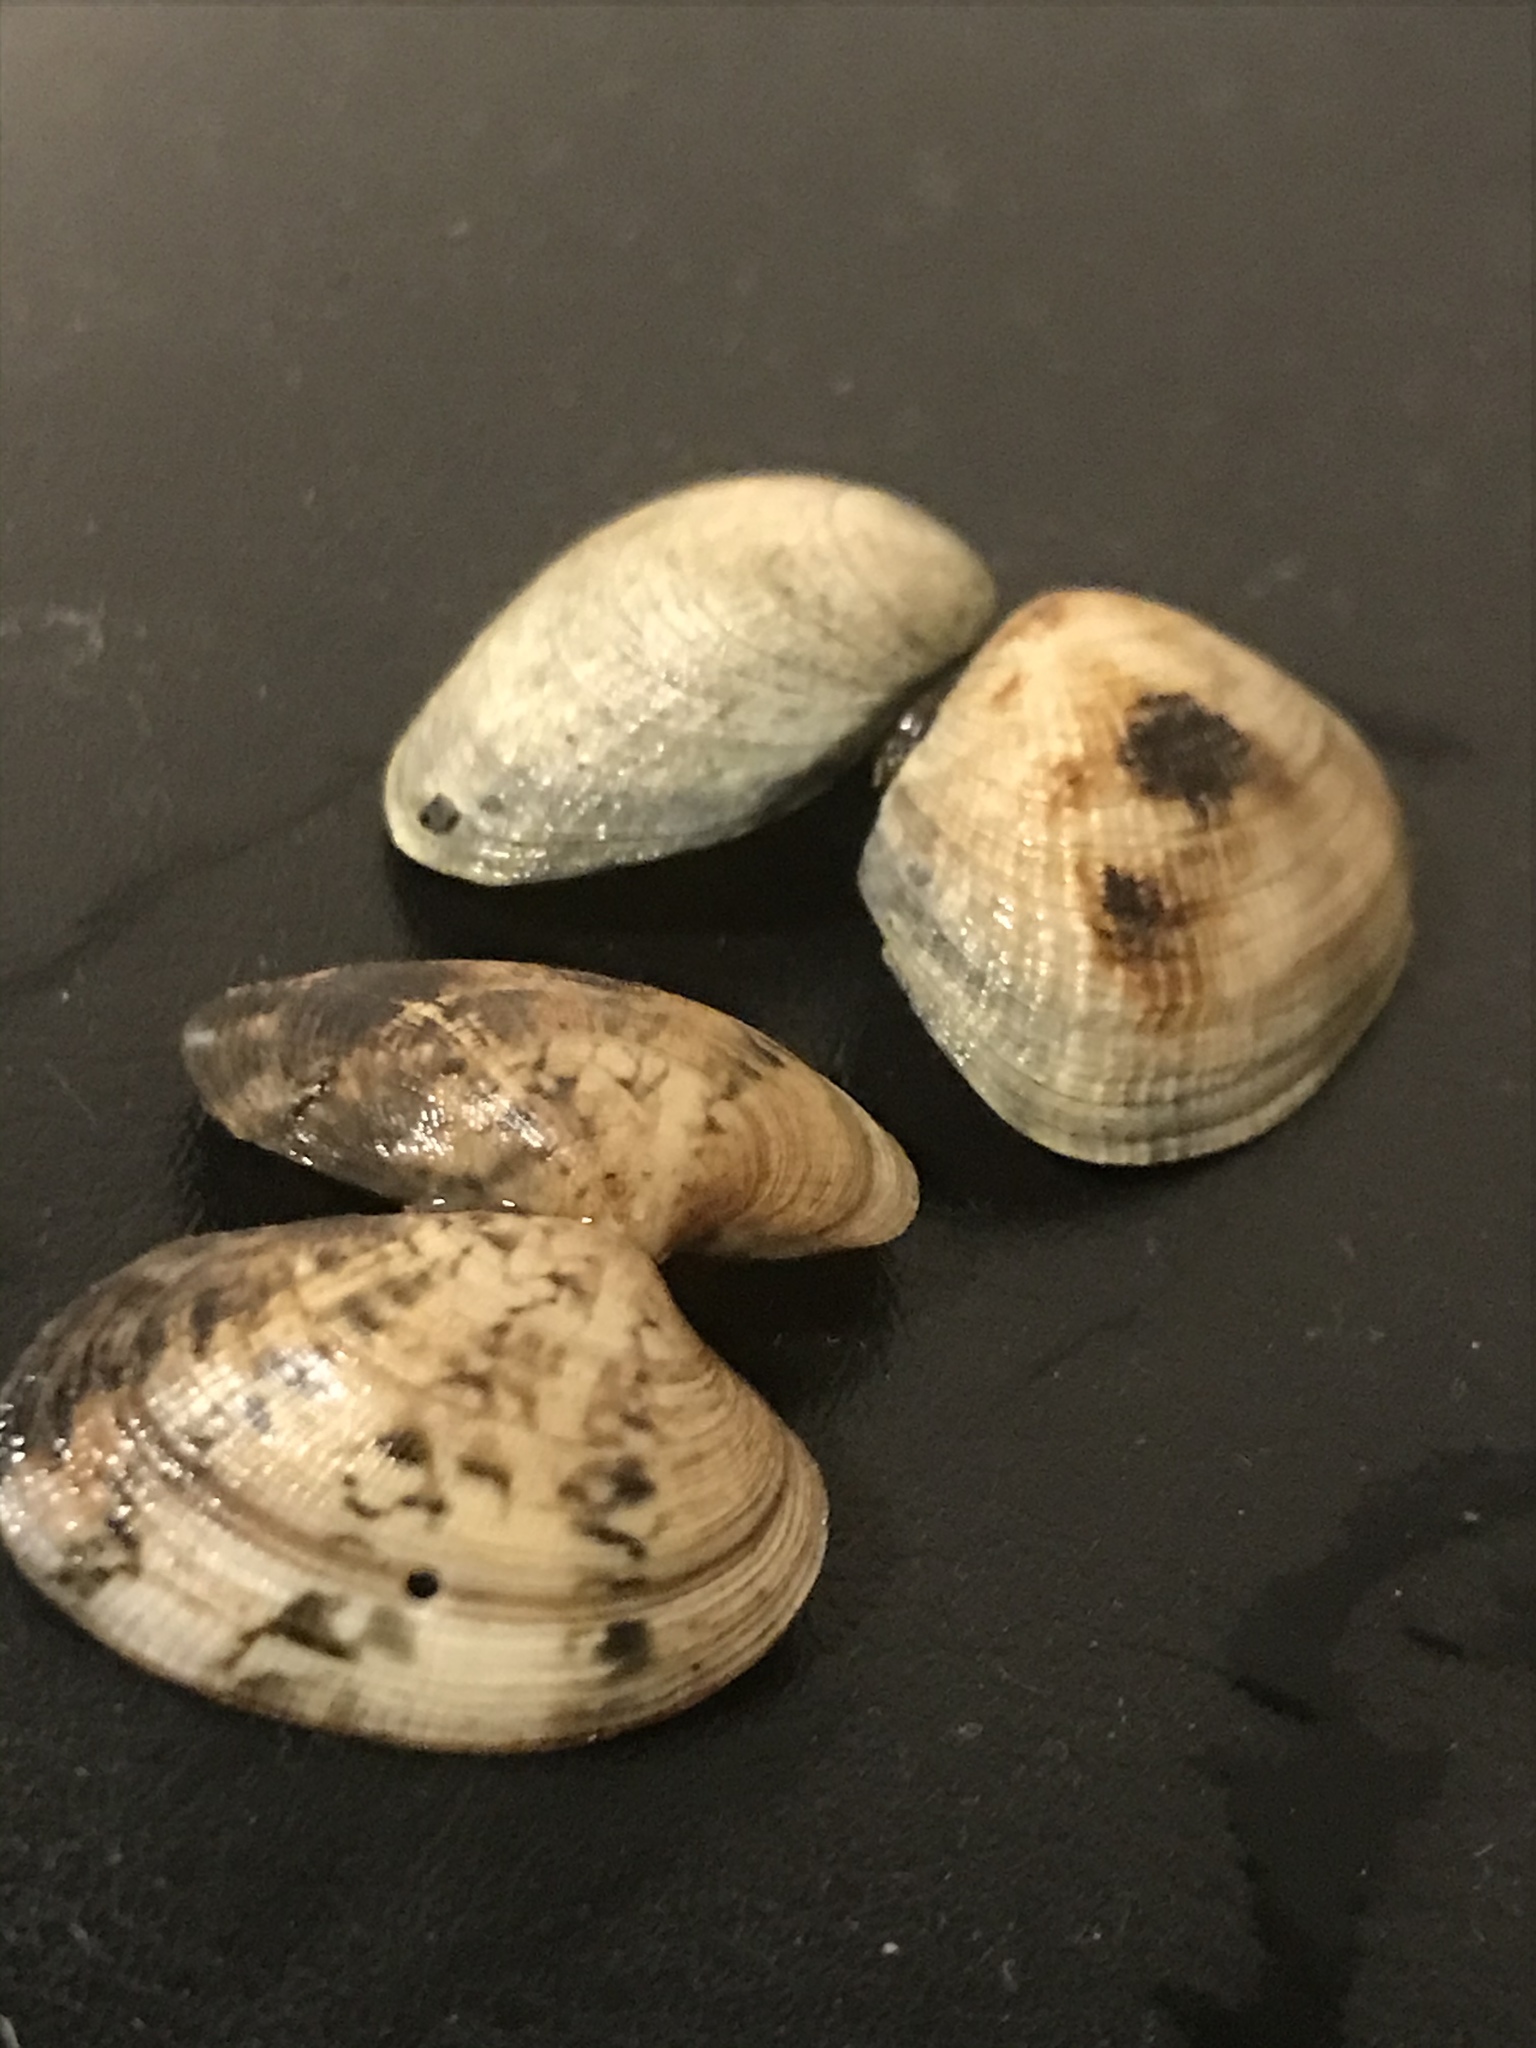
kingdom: Animalia
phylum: Mollusca
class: Bivalvia
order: Venerida
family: Veneridae
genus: Ruditapes
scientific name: Ruditapes philippinarum
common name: Manila clam
